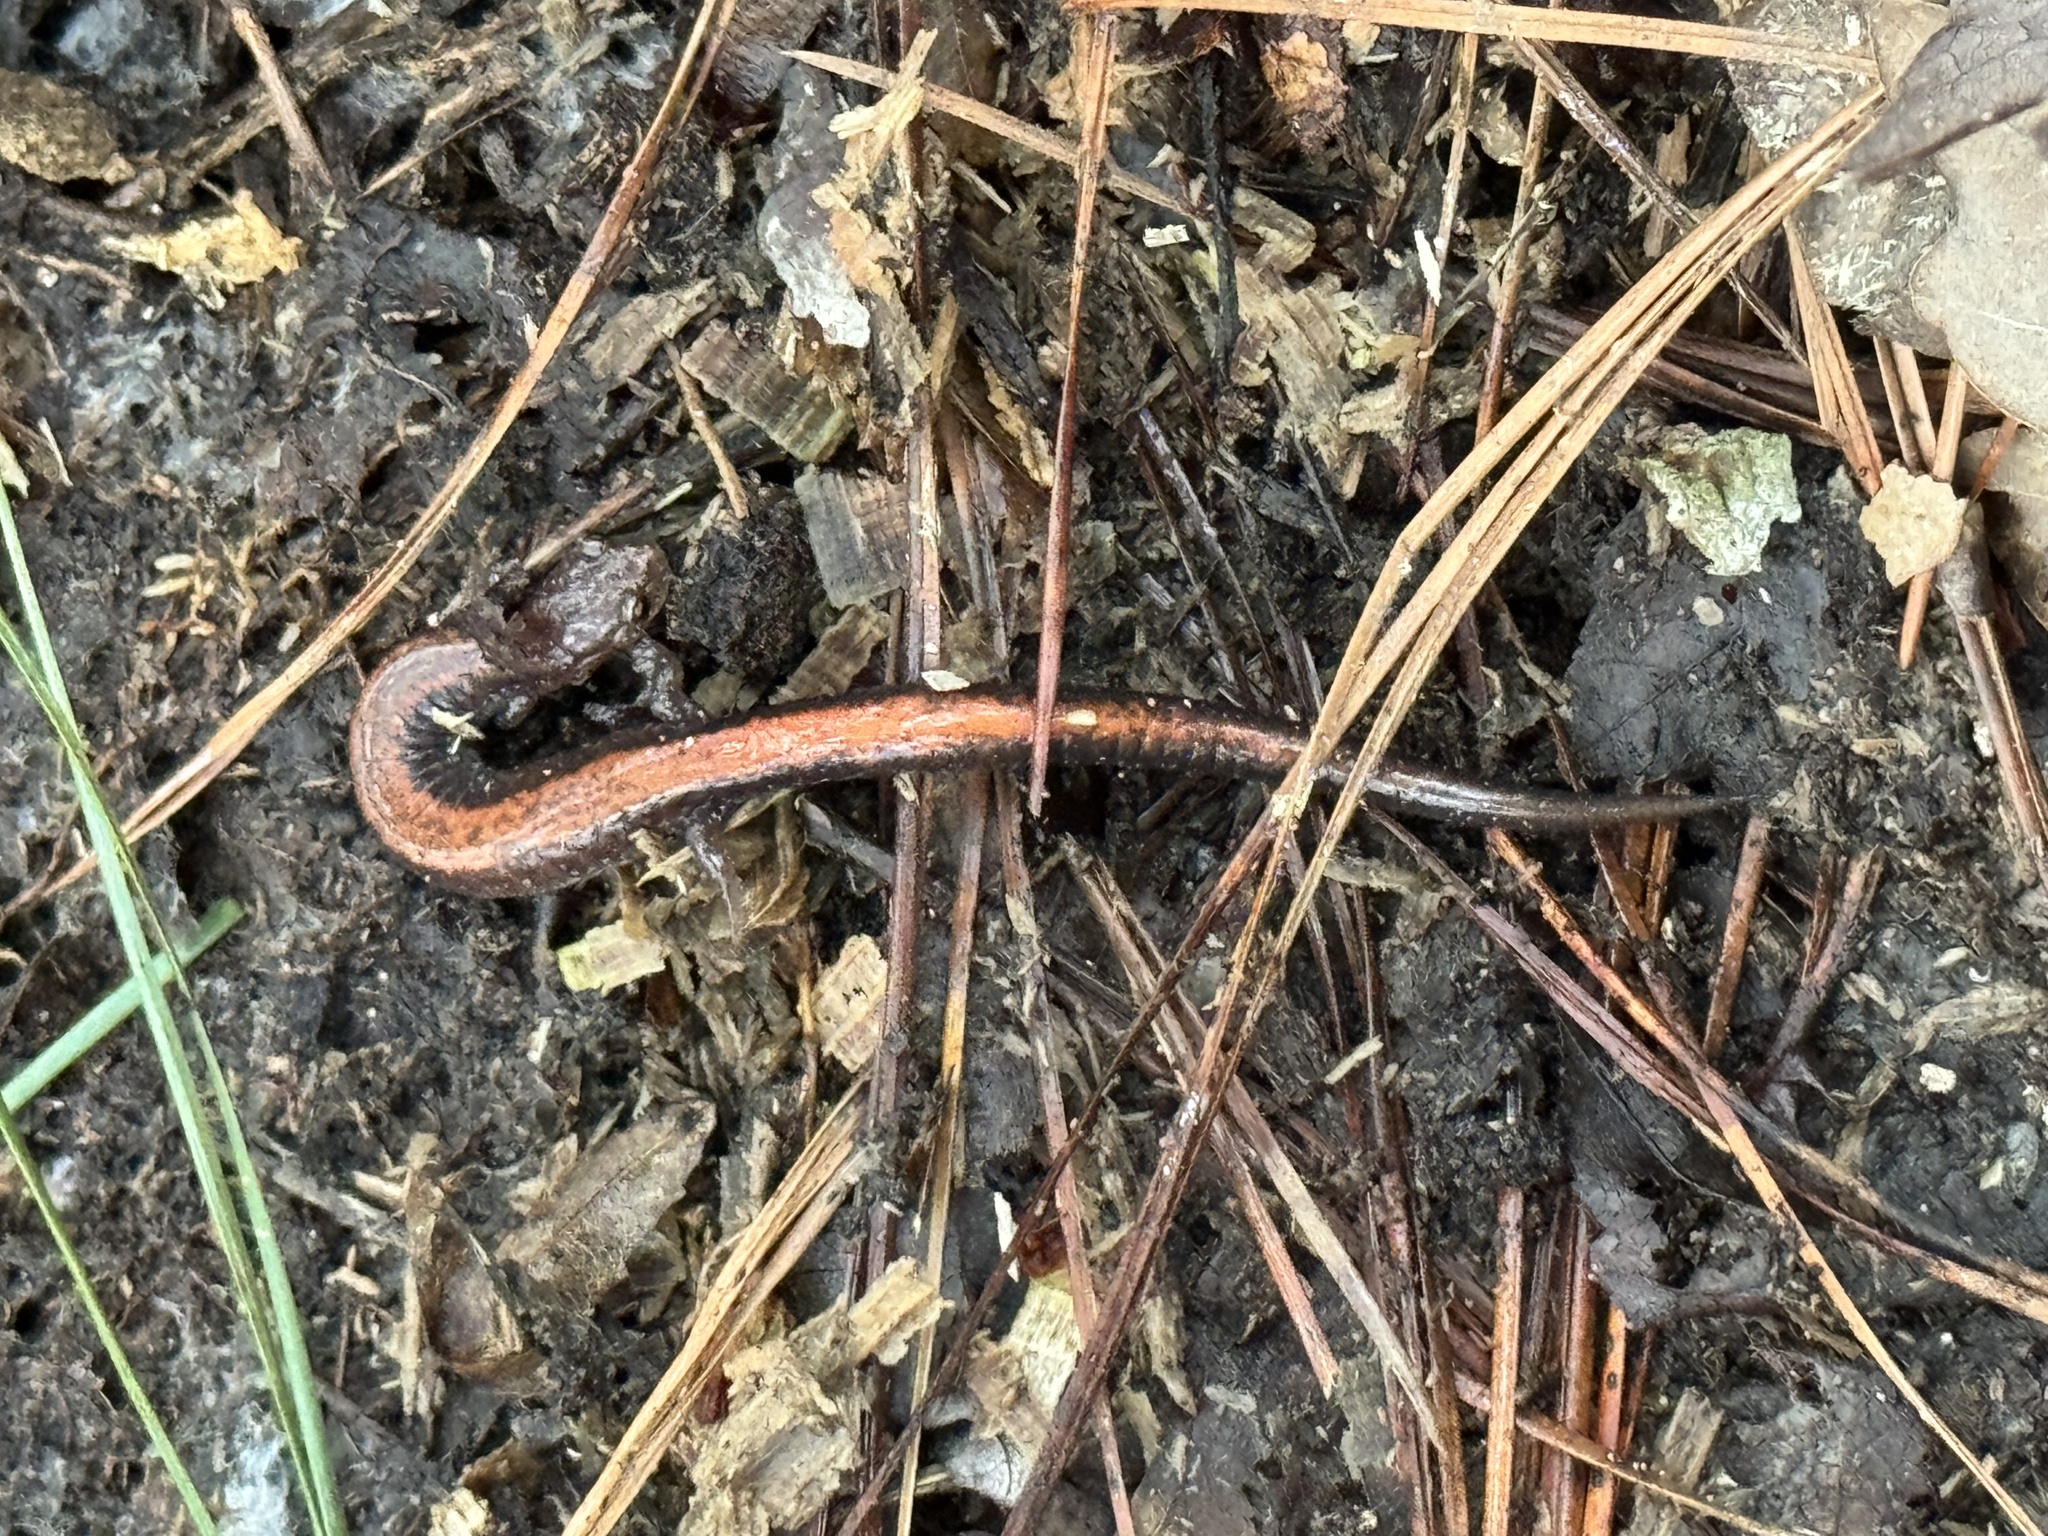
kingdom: Animalia
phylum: Chordata
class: Amphibia
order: Caudata
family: Plethodontidae
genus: Plethodon
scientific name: Plethodon cinereus
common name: Redback salamander
